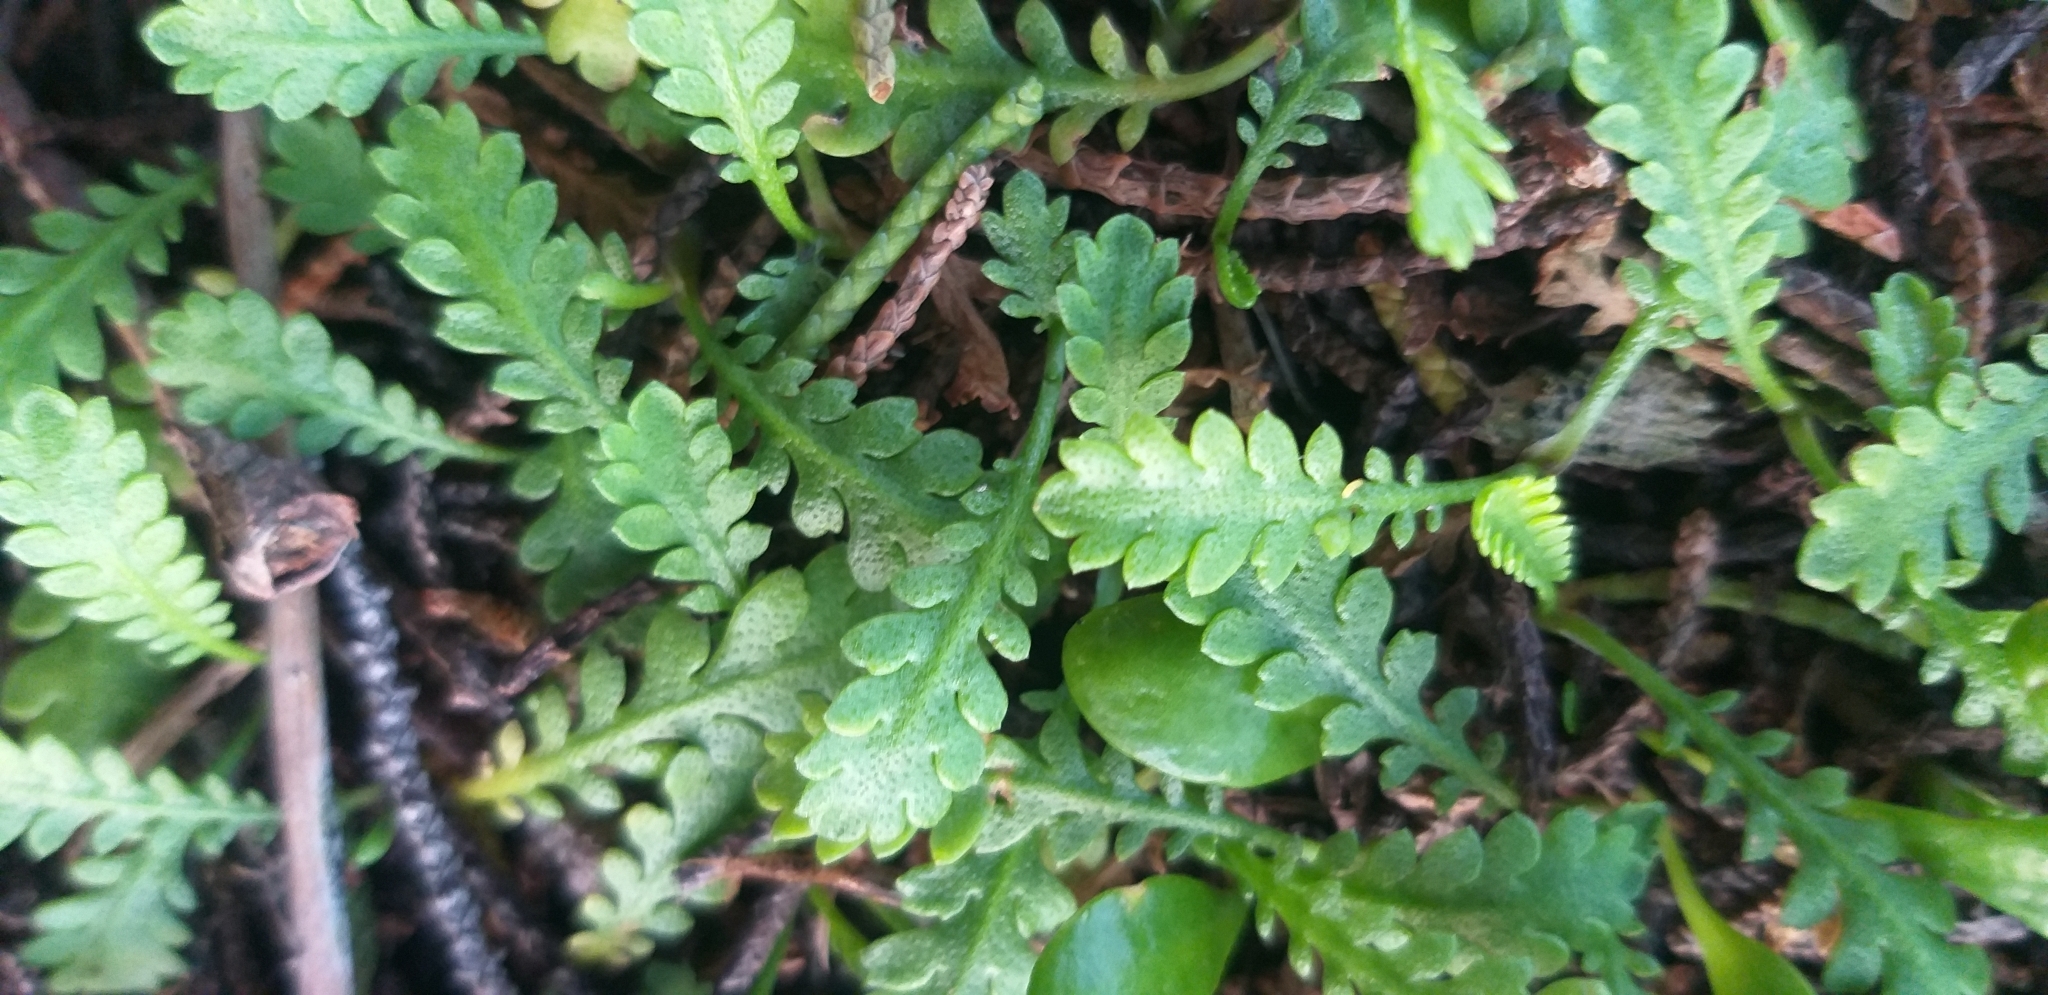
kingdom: Plantae
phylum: Tracheophyta
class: Magnoliopsida
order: Asterales
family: Asteraceae
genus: Leptinella
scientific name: Leptinella dioica
